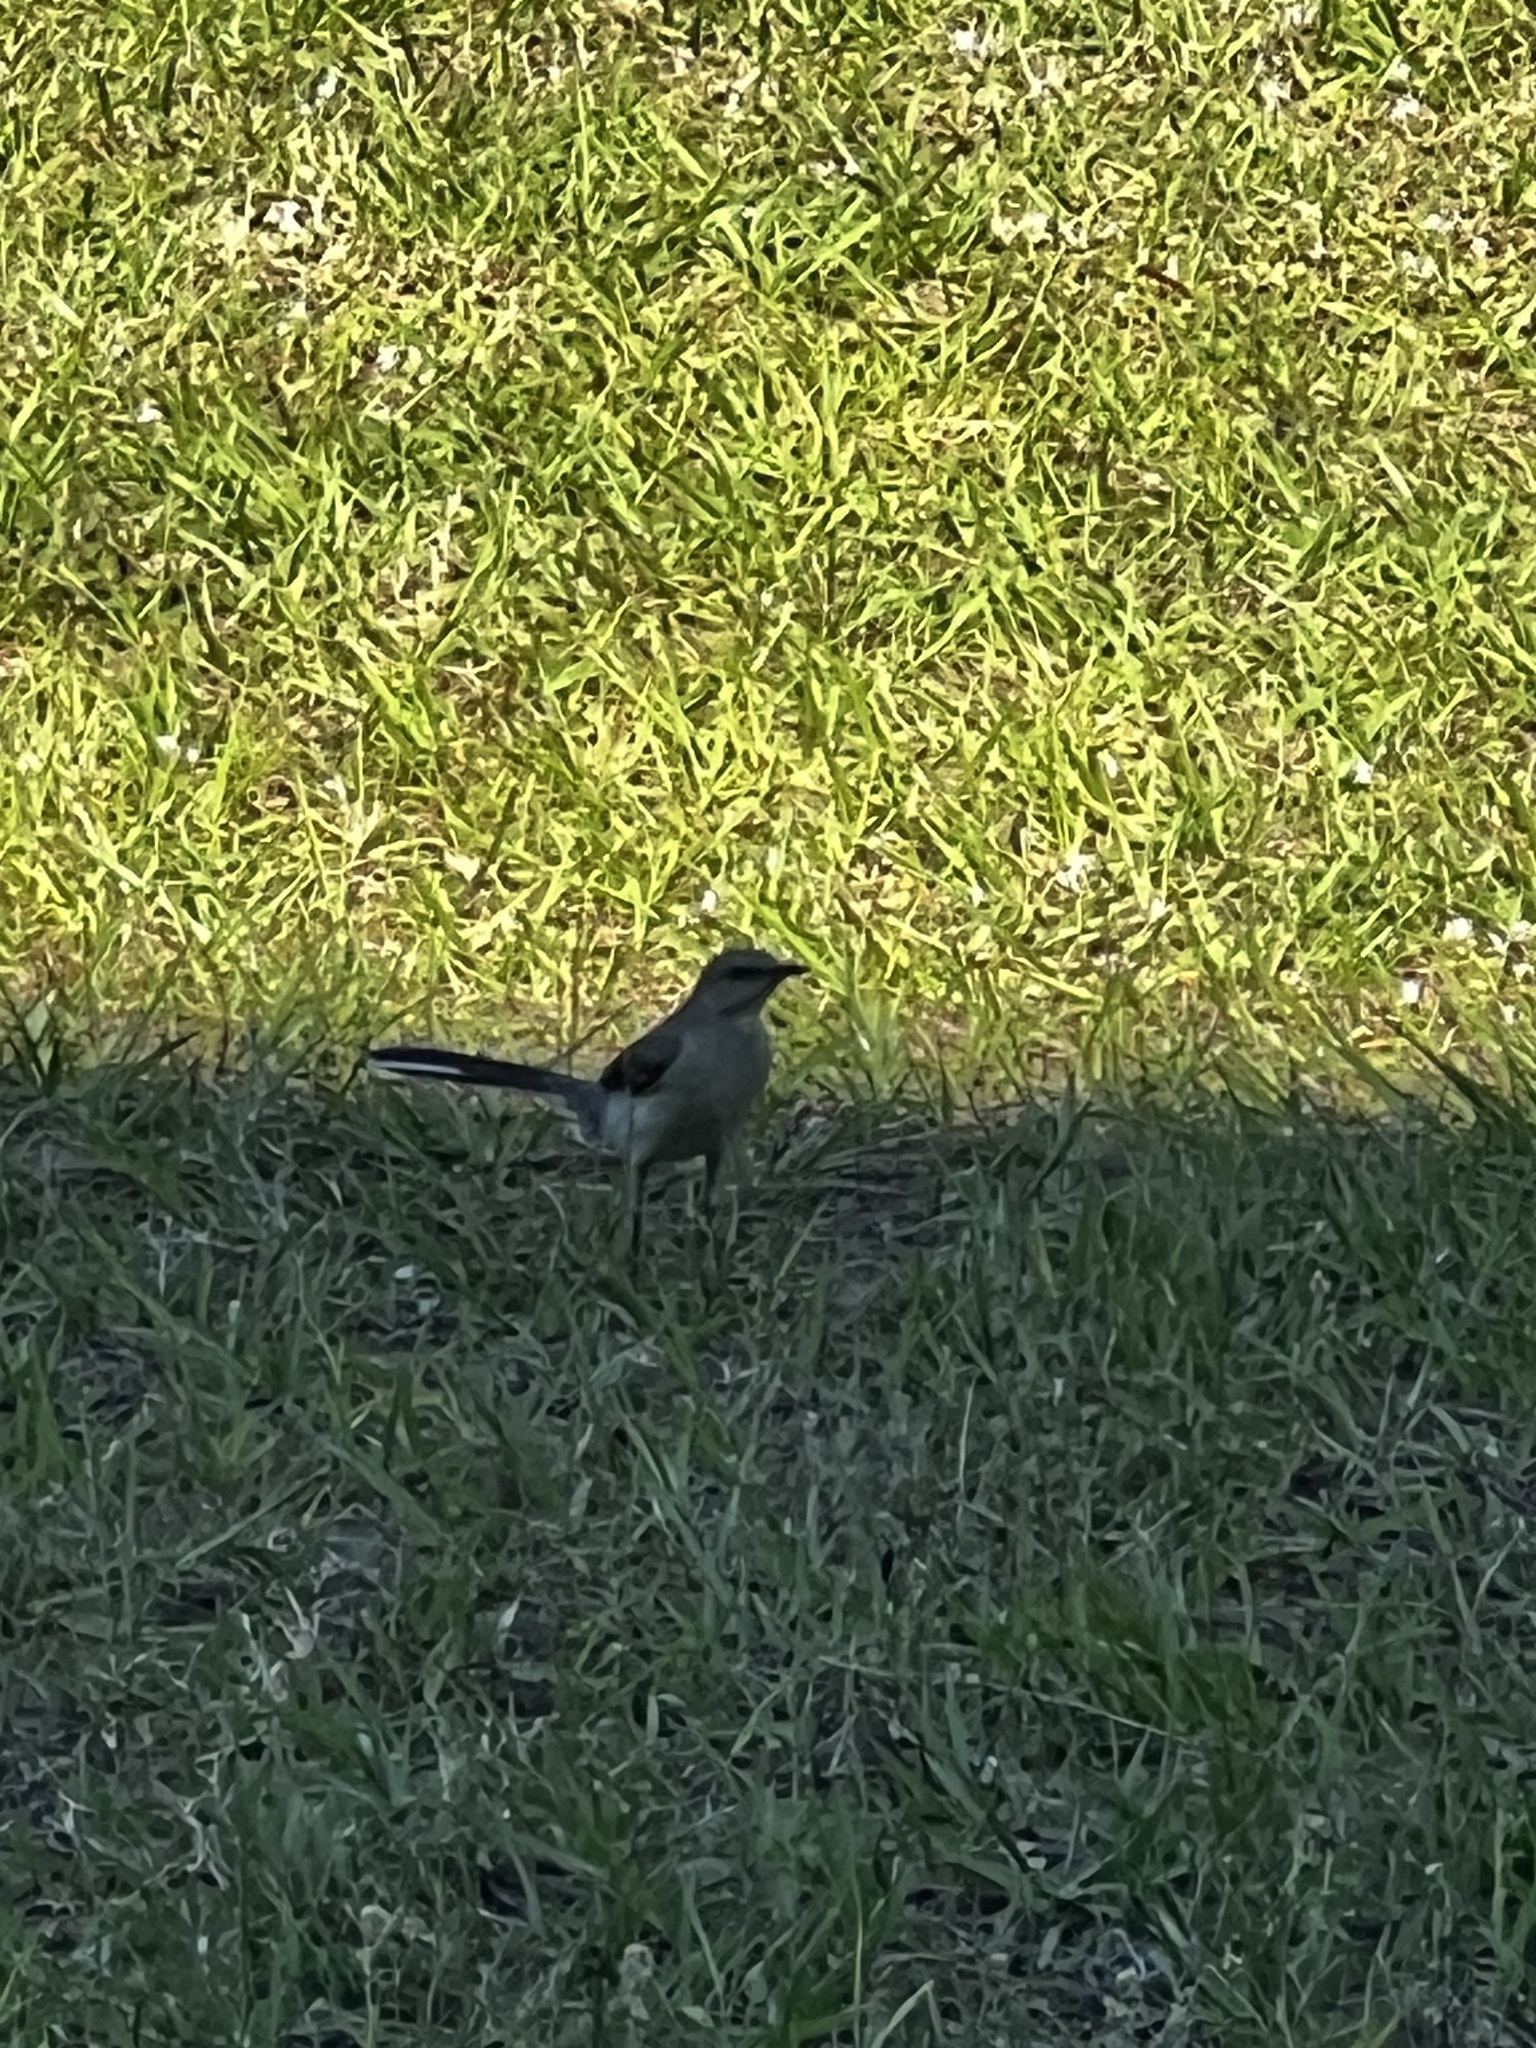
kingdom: Animalia
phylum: Chordata
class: Aves
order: Passeriformes
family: Mimidae
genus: Mimus
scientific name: Mimus polyglottos
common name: Northern mockingbird
